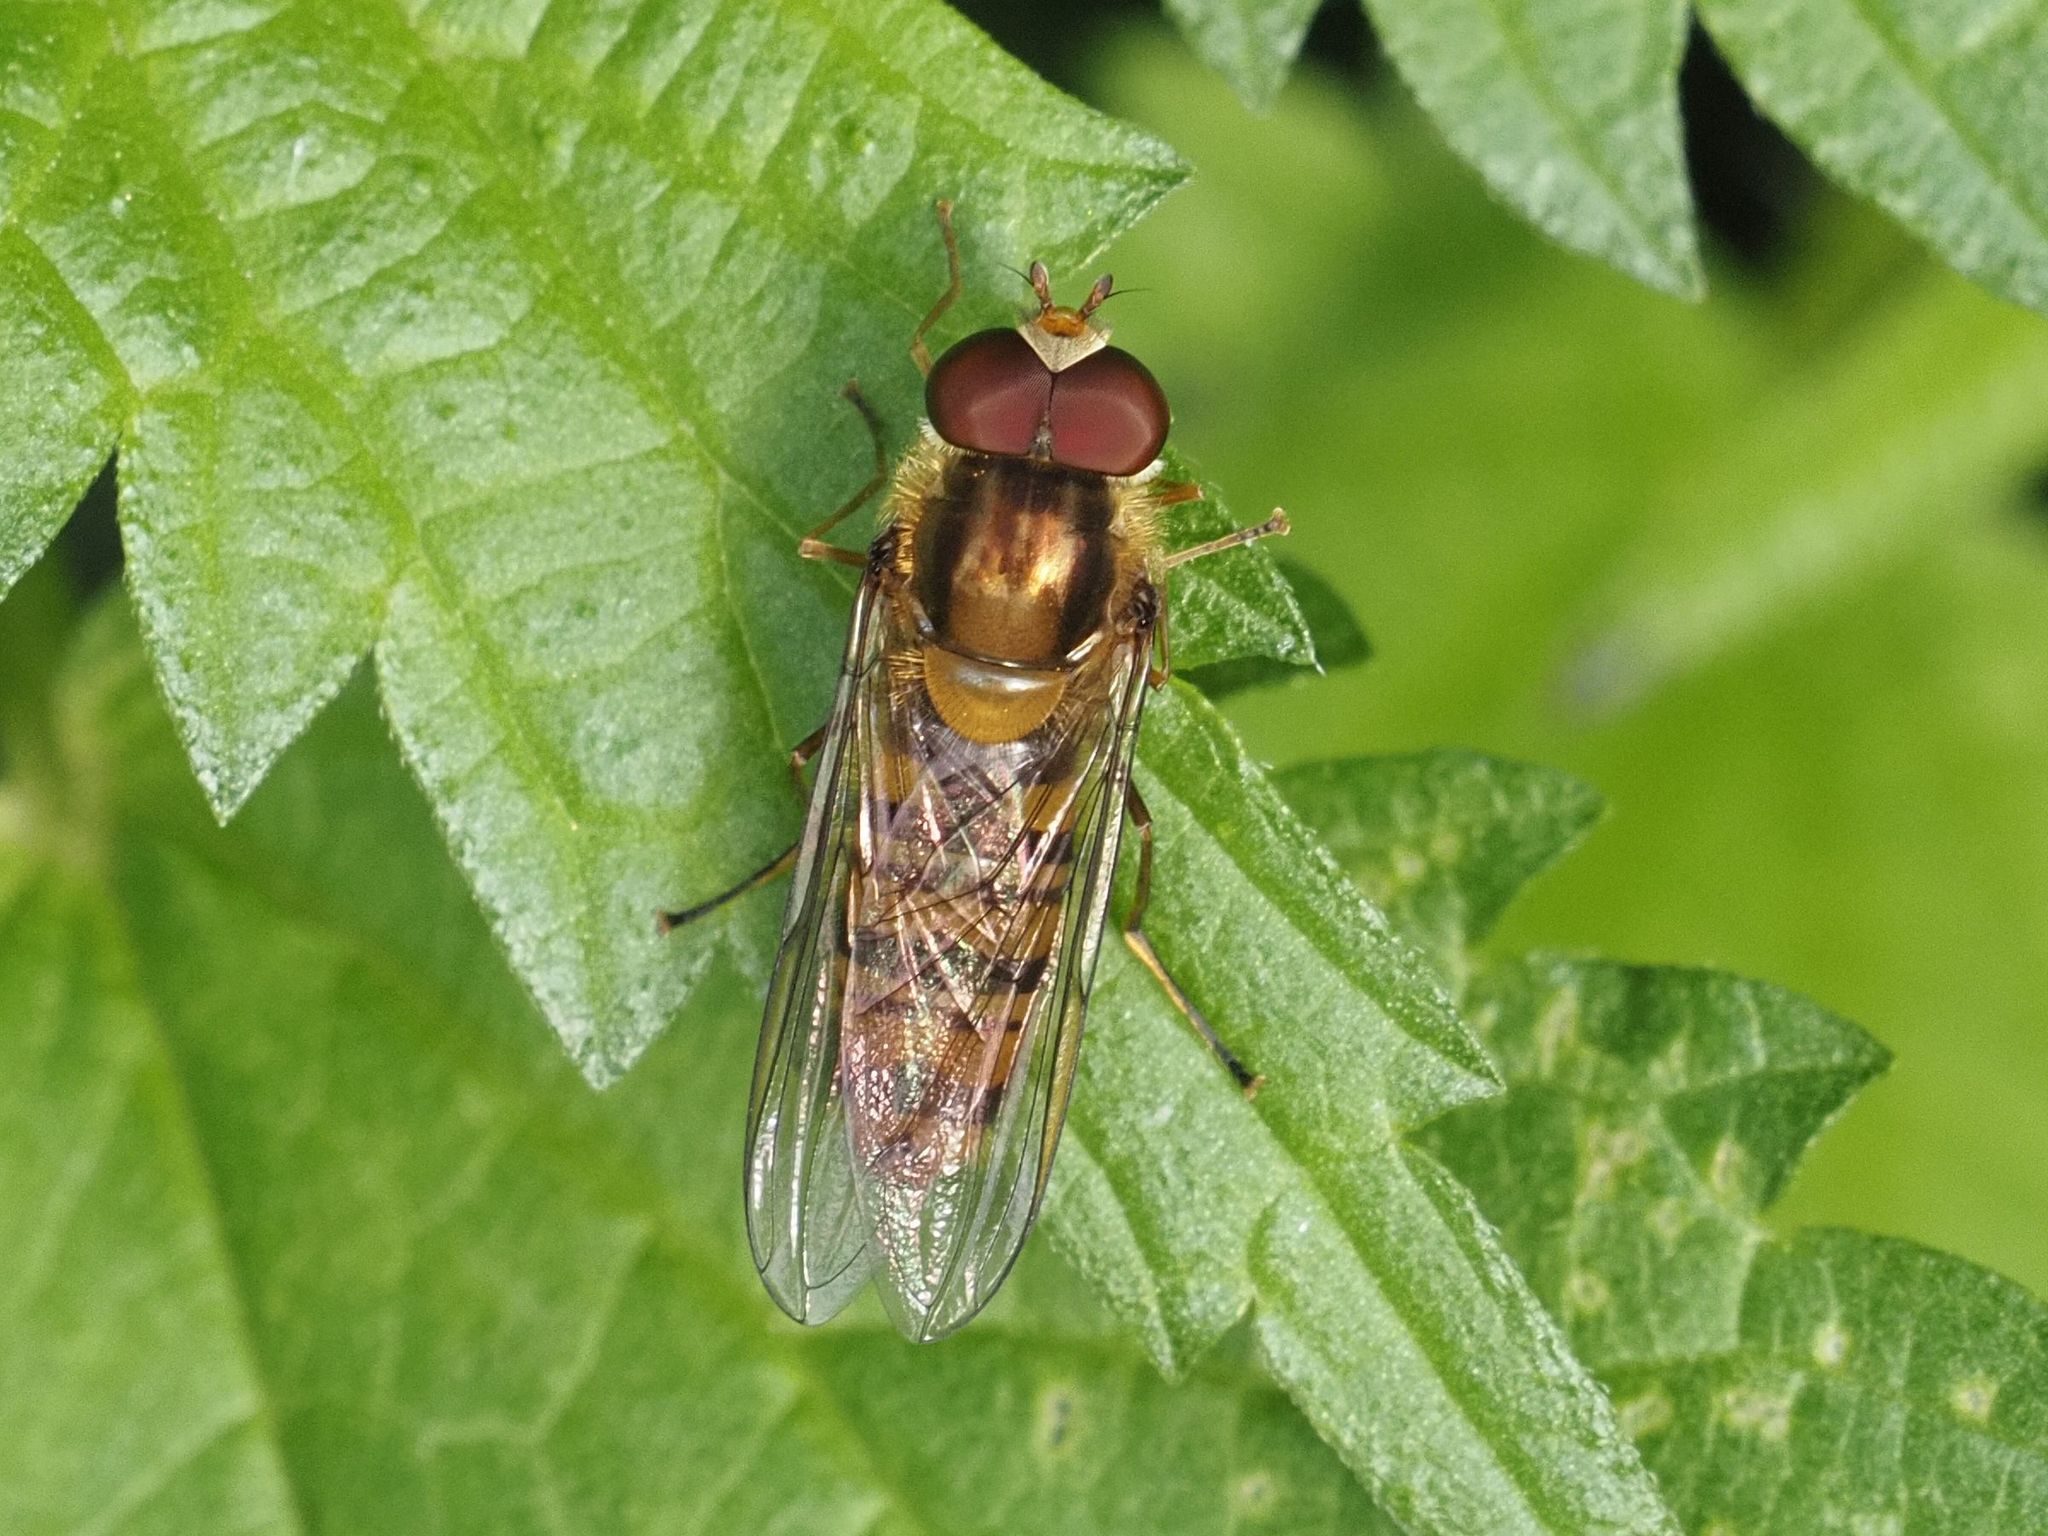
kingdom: Animalia
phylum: Arthropoda
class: Insecta
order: Diptera
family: Syrphidae
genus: Episyrphus
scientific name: Episyrphus balteatus
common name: Marmalade hoverfly
